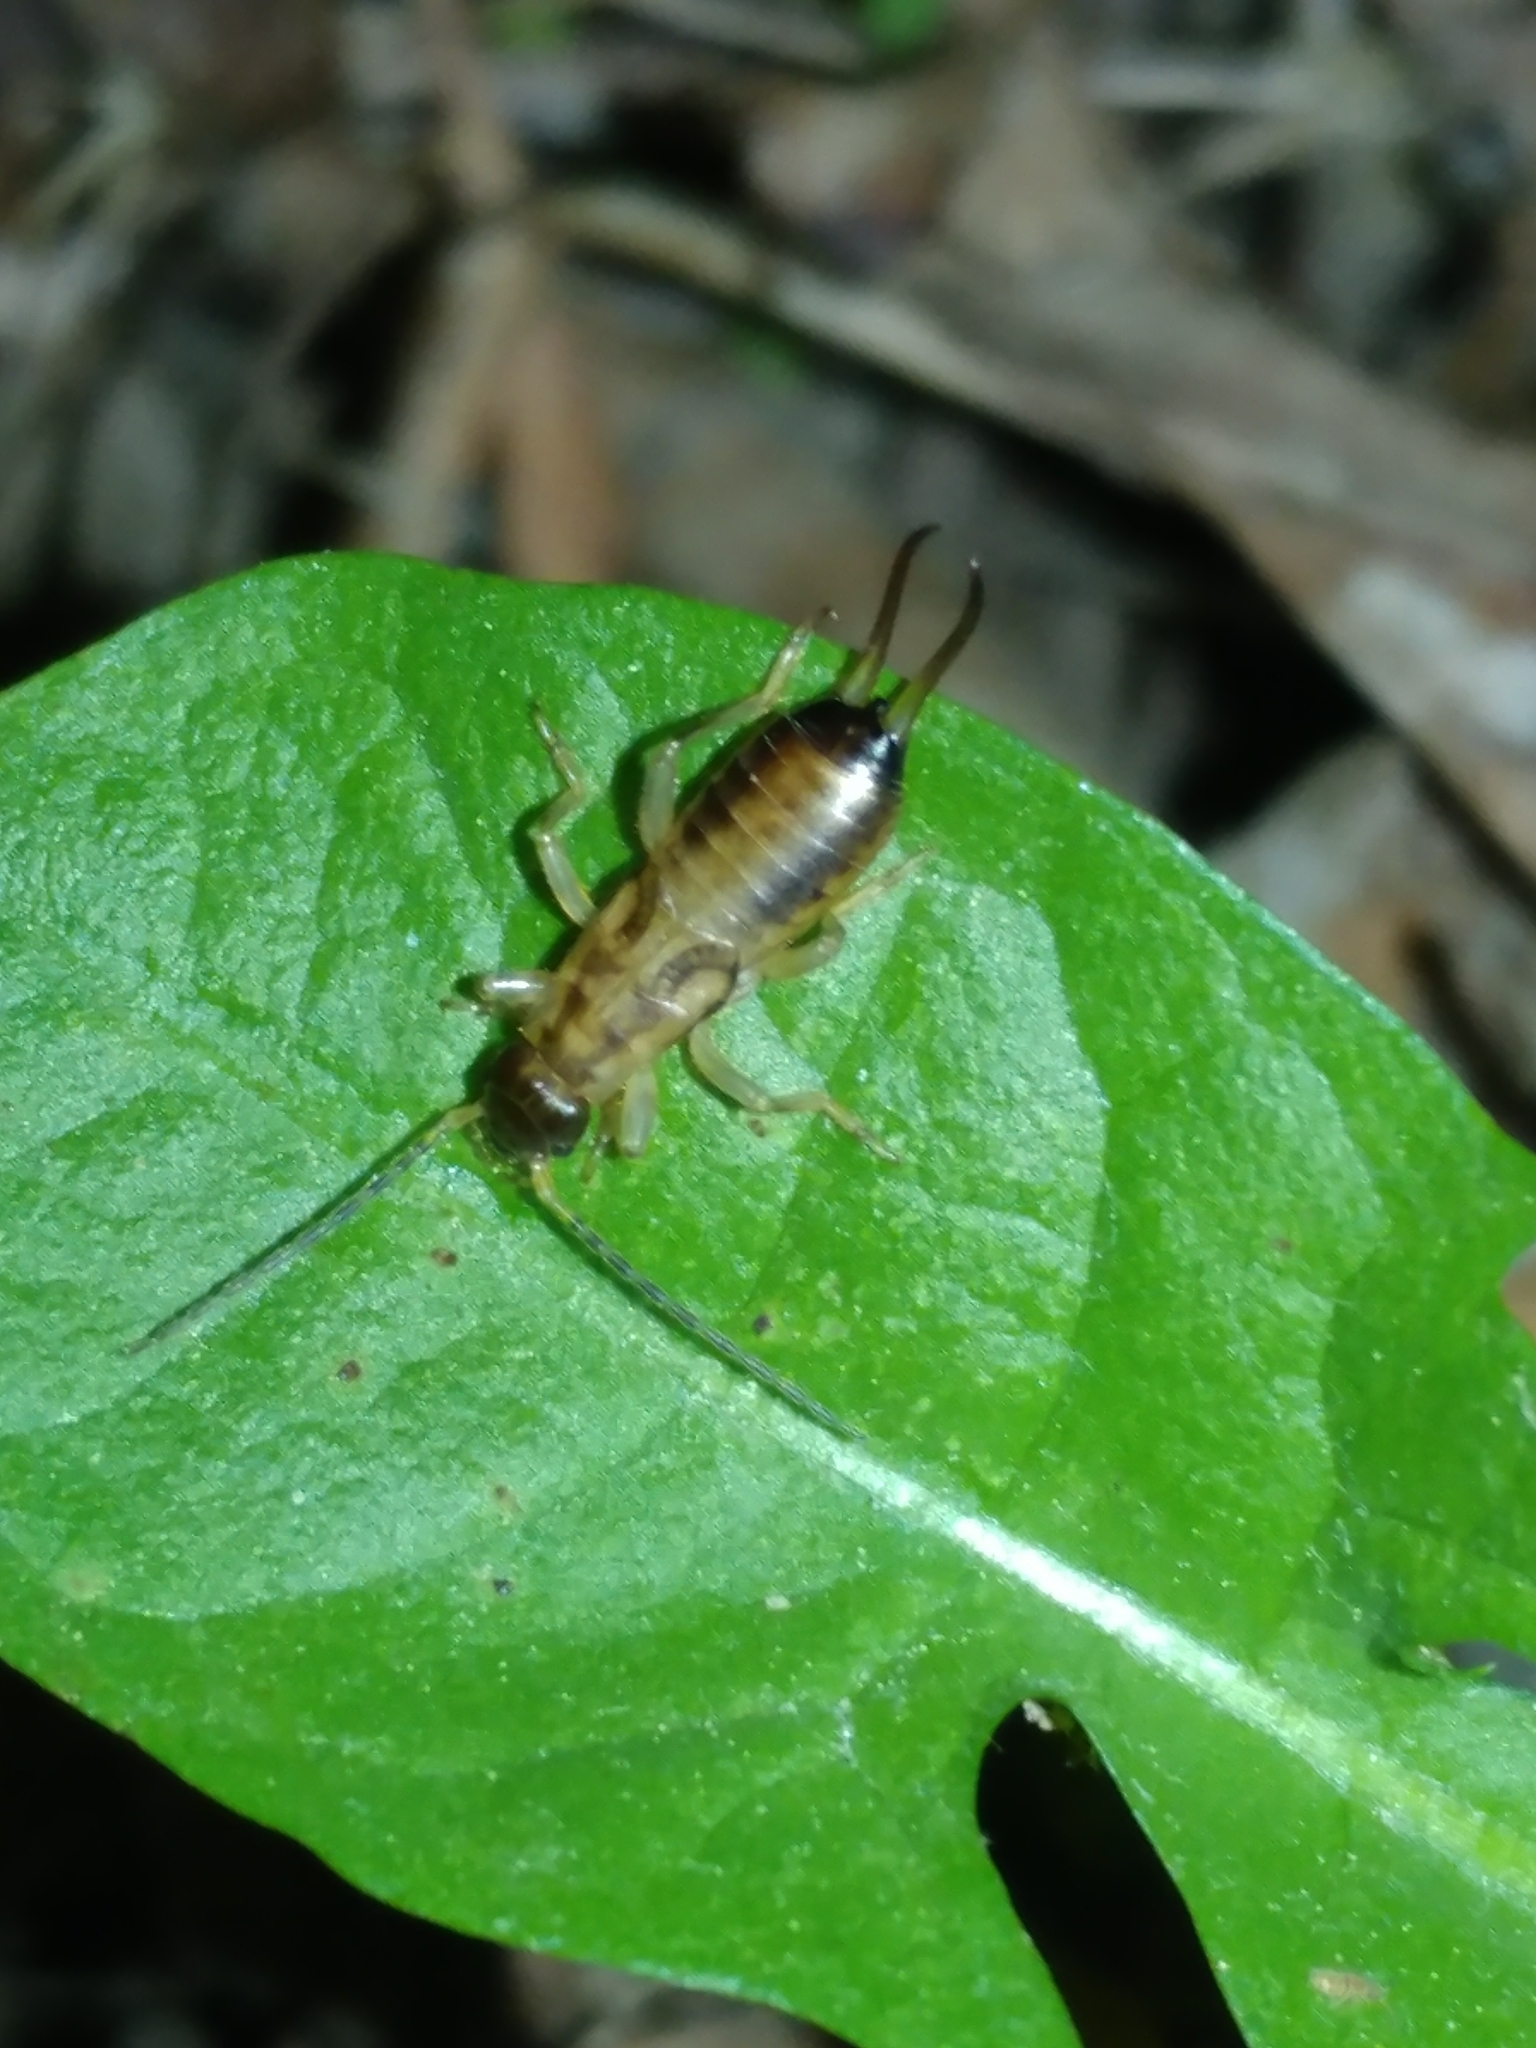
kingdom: Animalia
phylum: Arthropoda
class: Insecta
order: Dermaptera
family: Forficulidae
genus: Forficula
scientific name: Forficula
